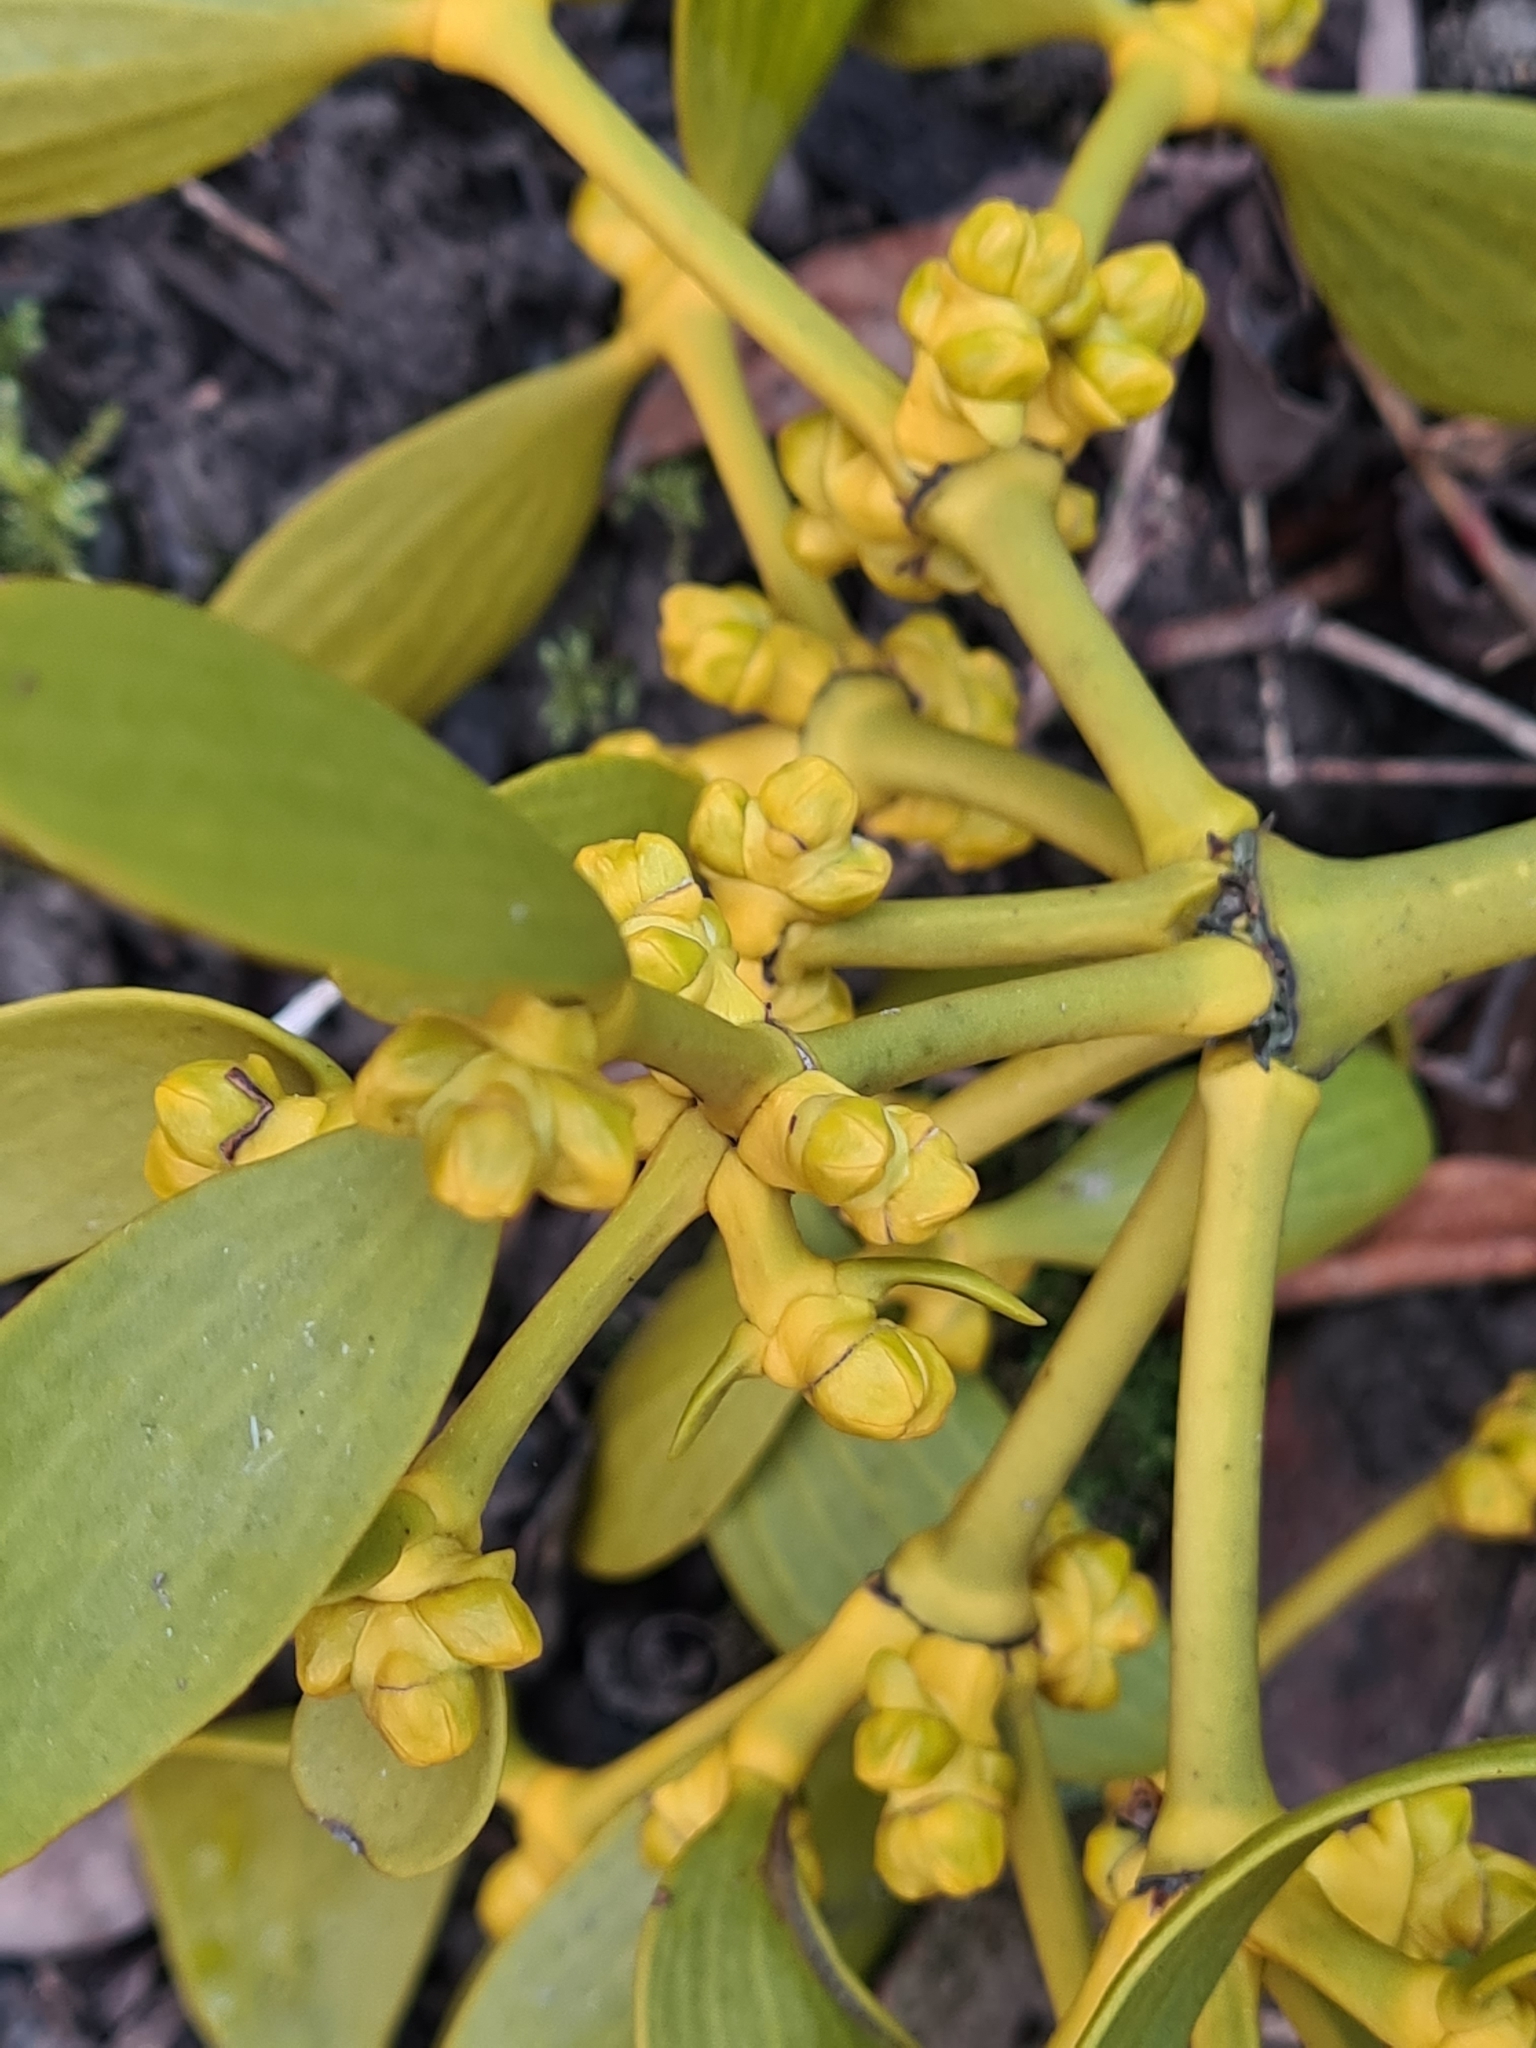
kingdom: Plantae
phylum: Tracheophyta
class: Magnoliopsida
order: Santalales
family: Viscaceae
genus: Viscum
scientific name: Viscum album
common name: Mistletoe
